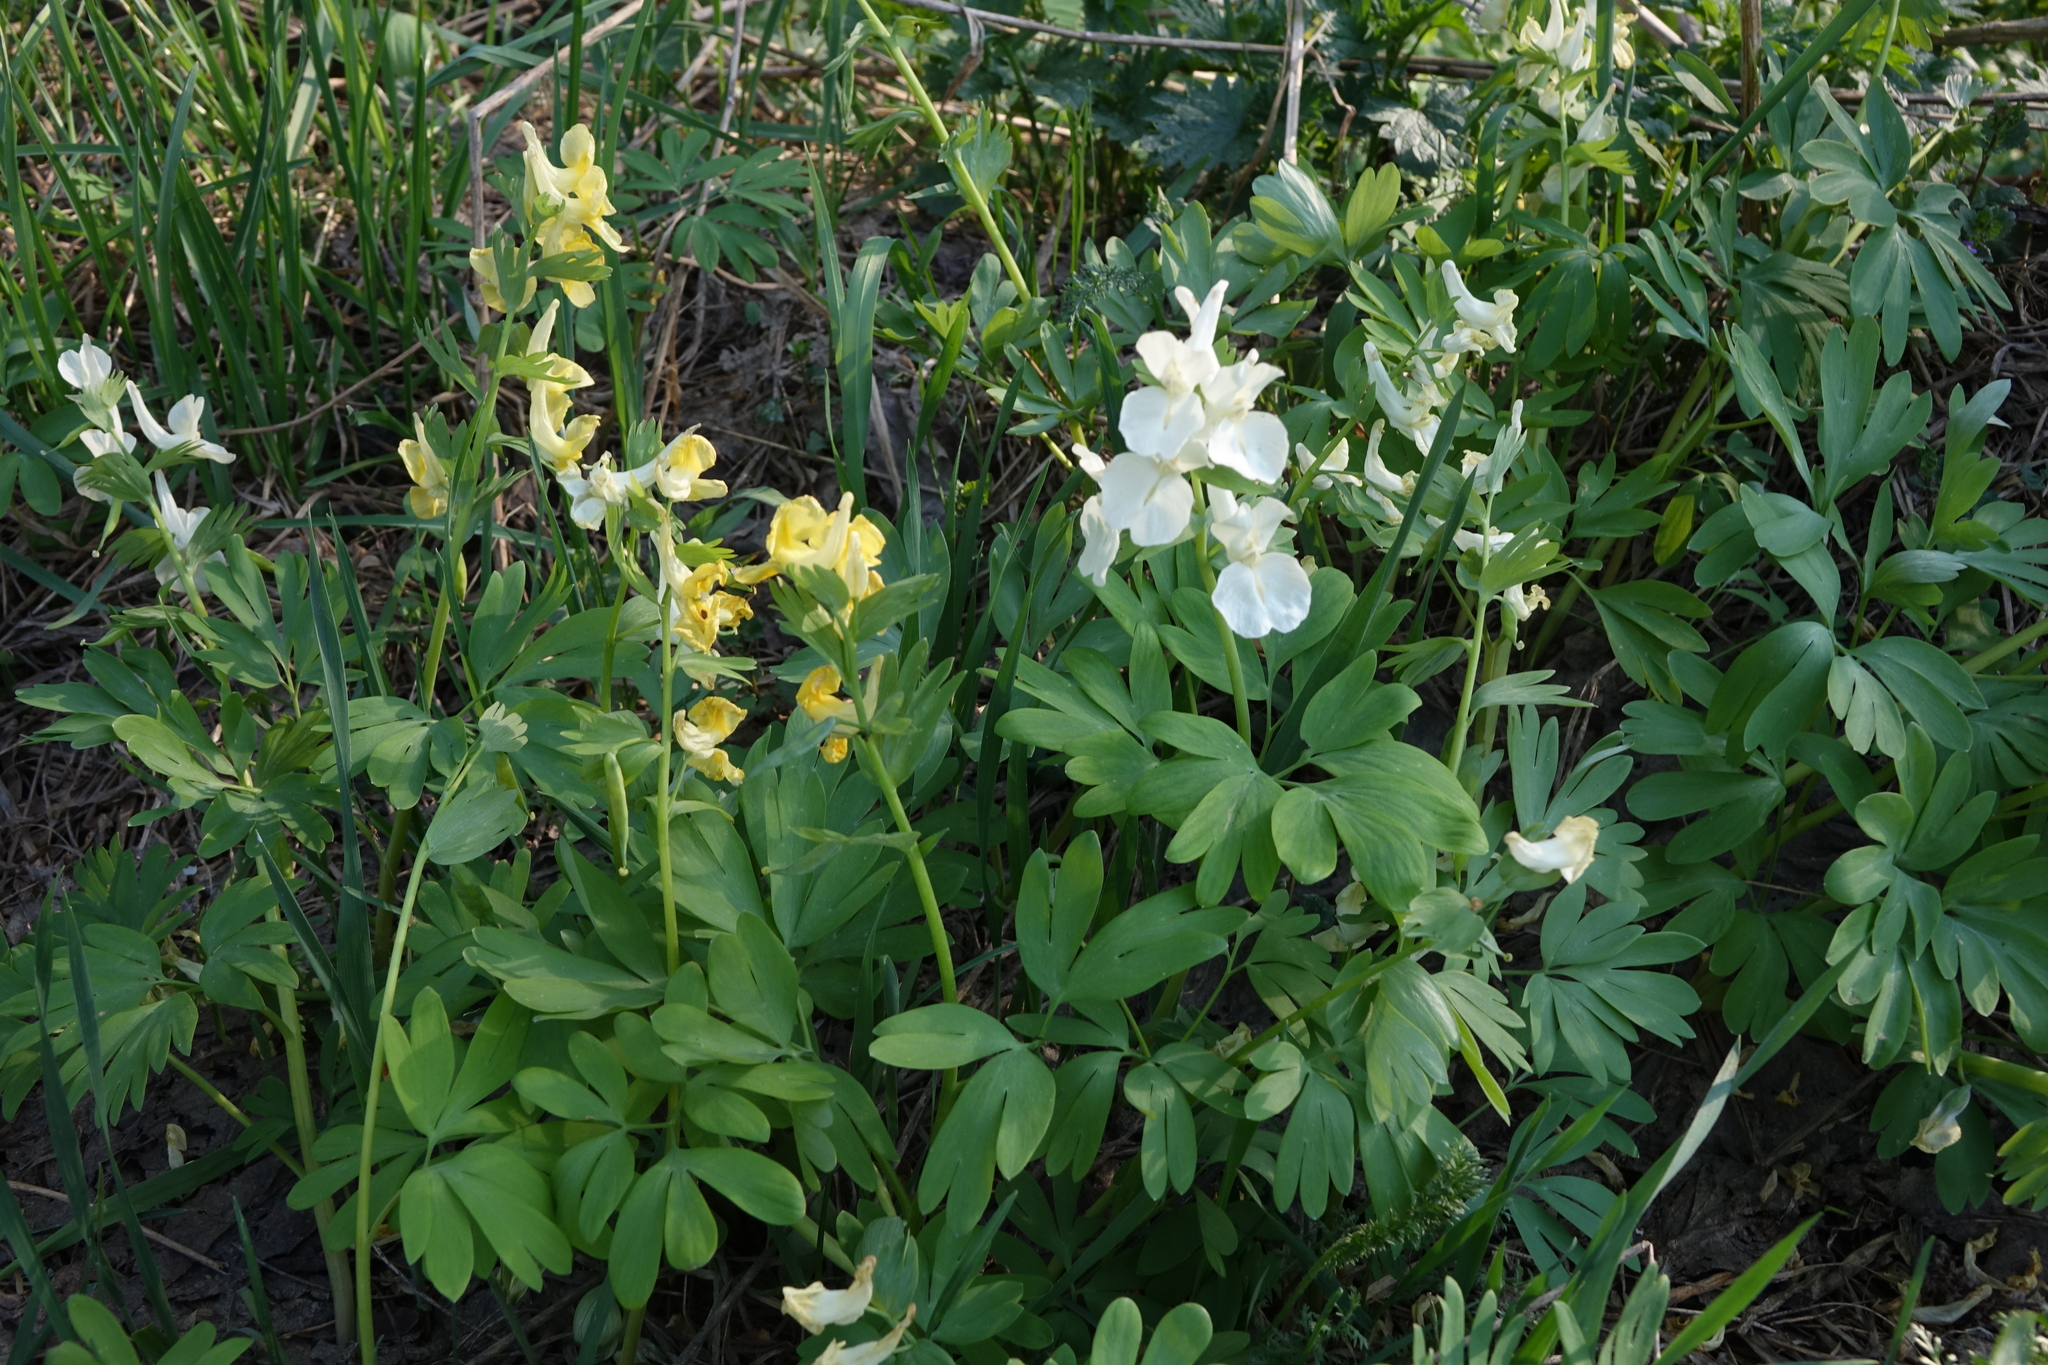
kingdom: Plantae
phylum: Tracheophyta
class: Magnoliopsida
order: Ranunculales
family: Papaveraceae
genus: Corydalis
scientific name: Corydalis bracteata
